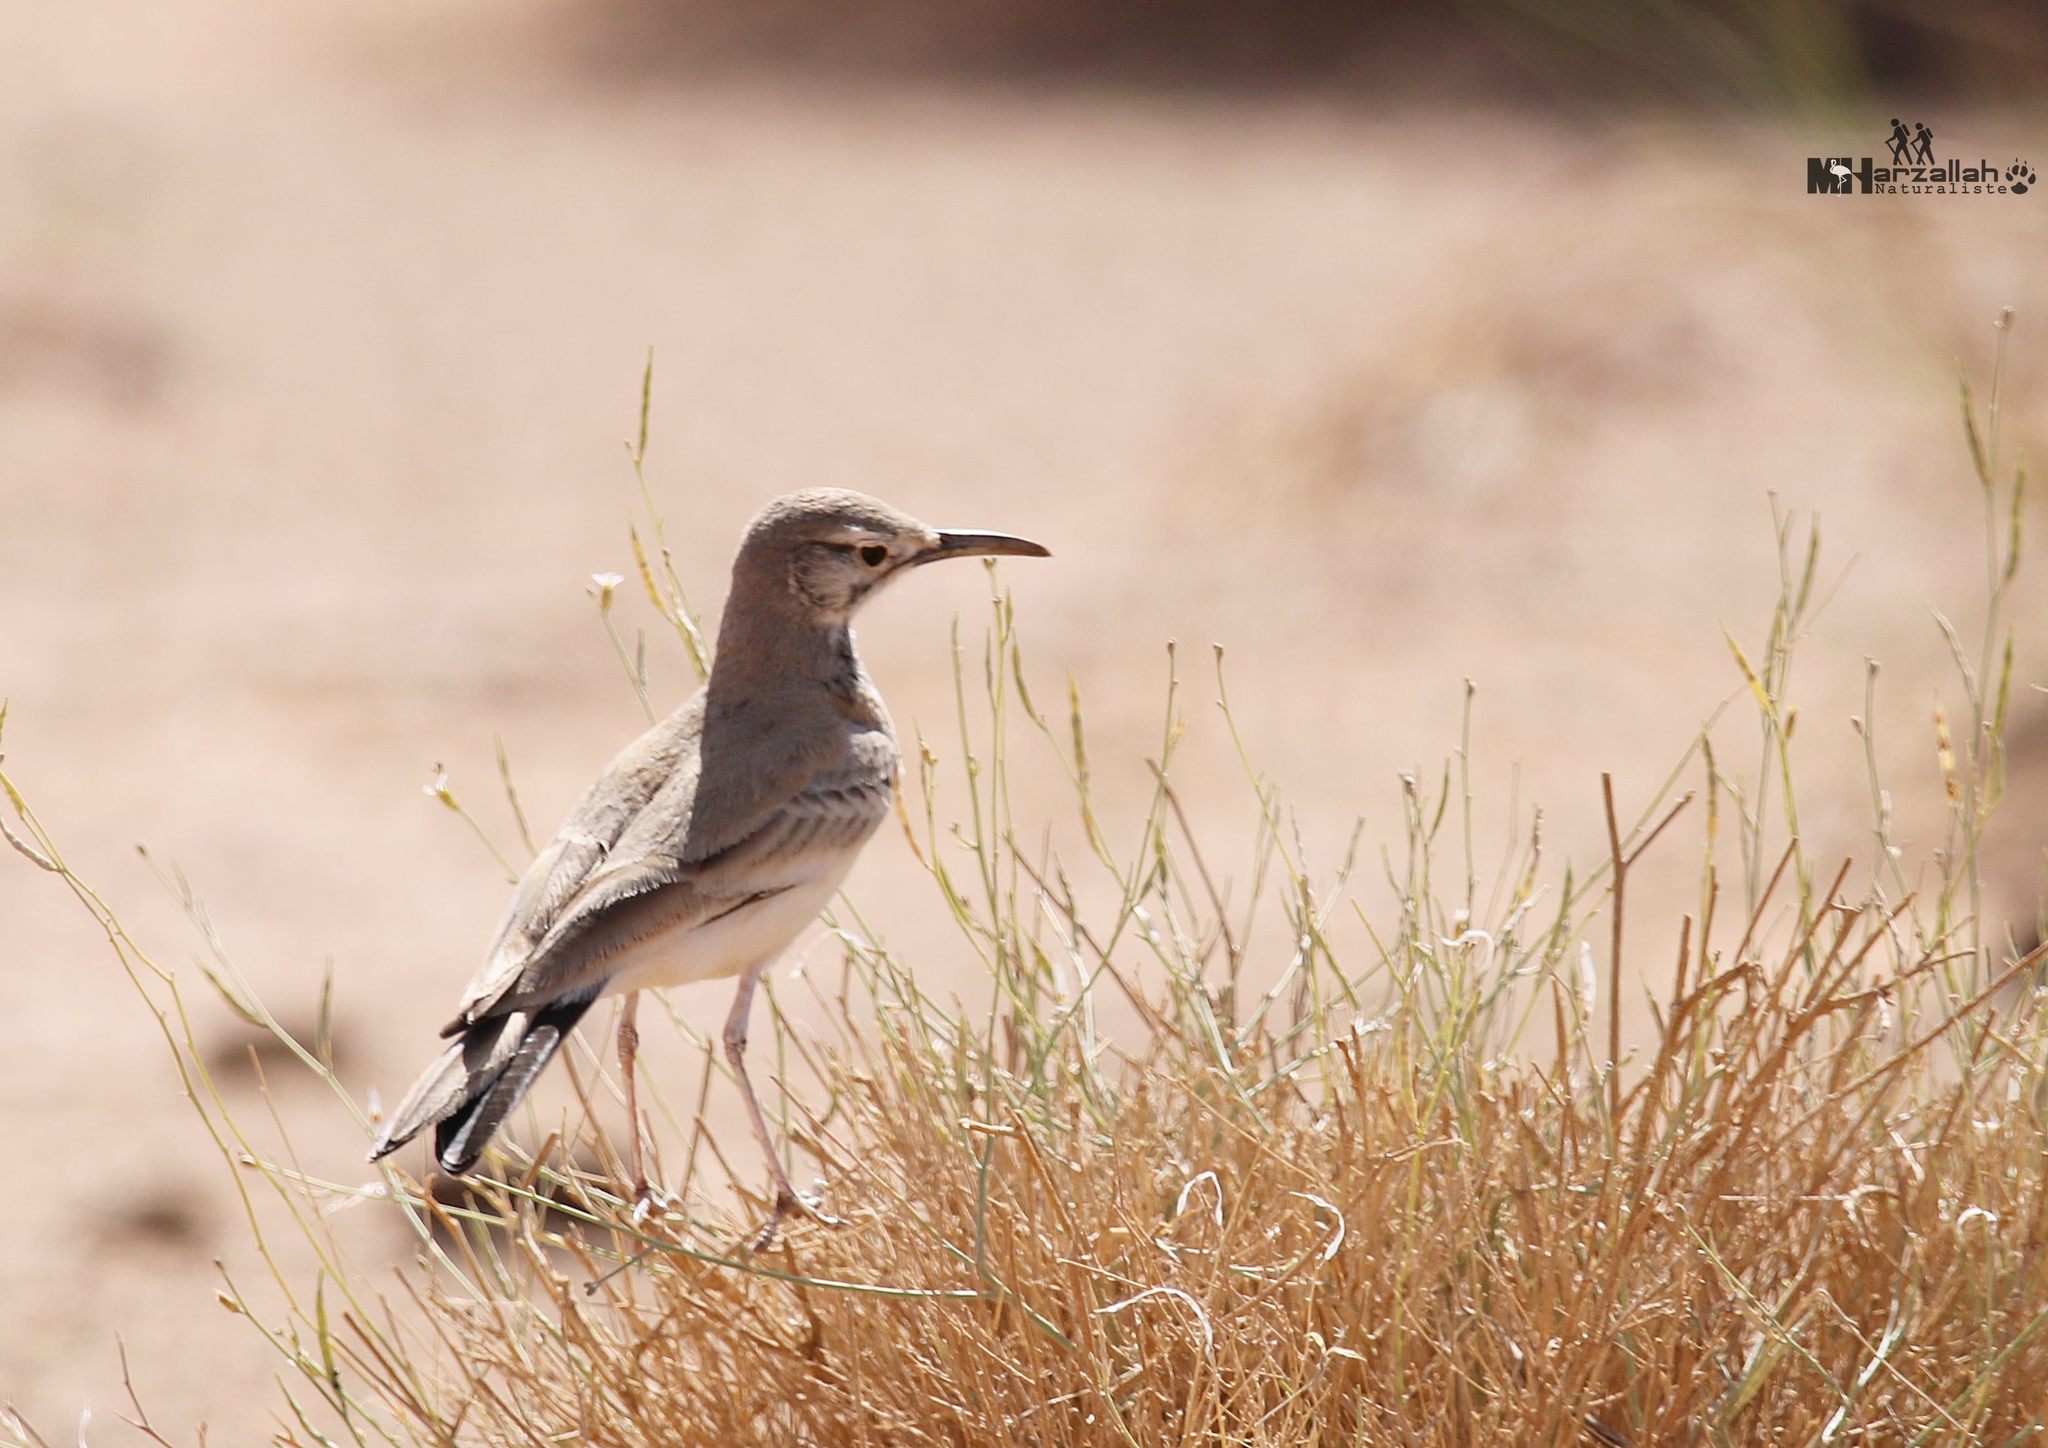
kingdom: Animalia
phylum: Chordata
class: Aves
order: Passeriformes
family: Alaudidae
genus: Alaemon
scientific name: Alaemon alaudipes
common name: Greater hoopoe-lark
